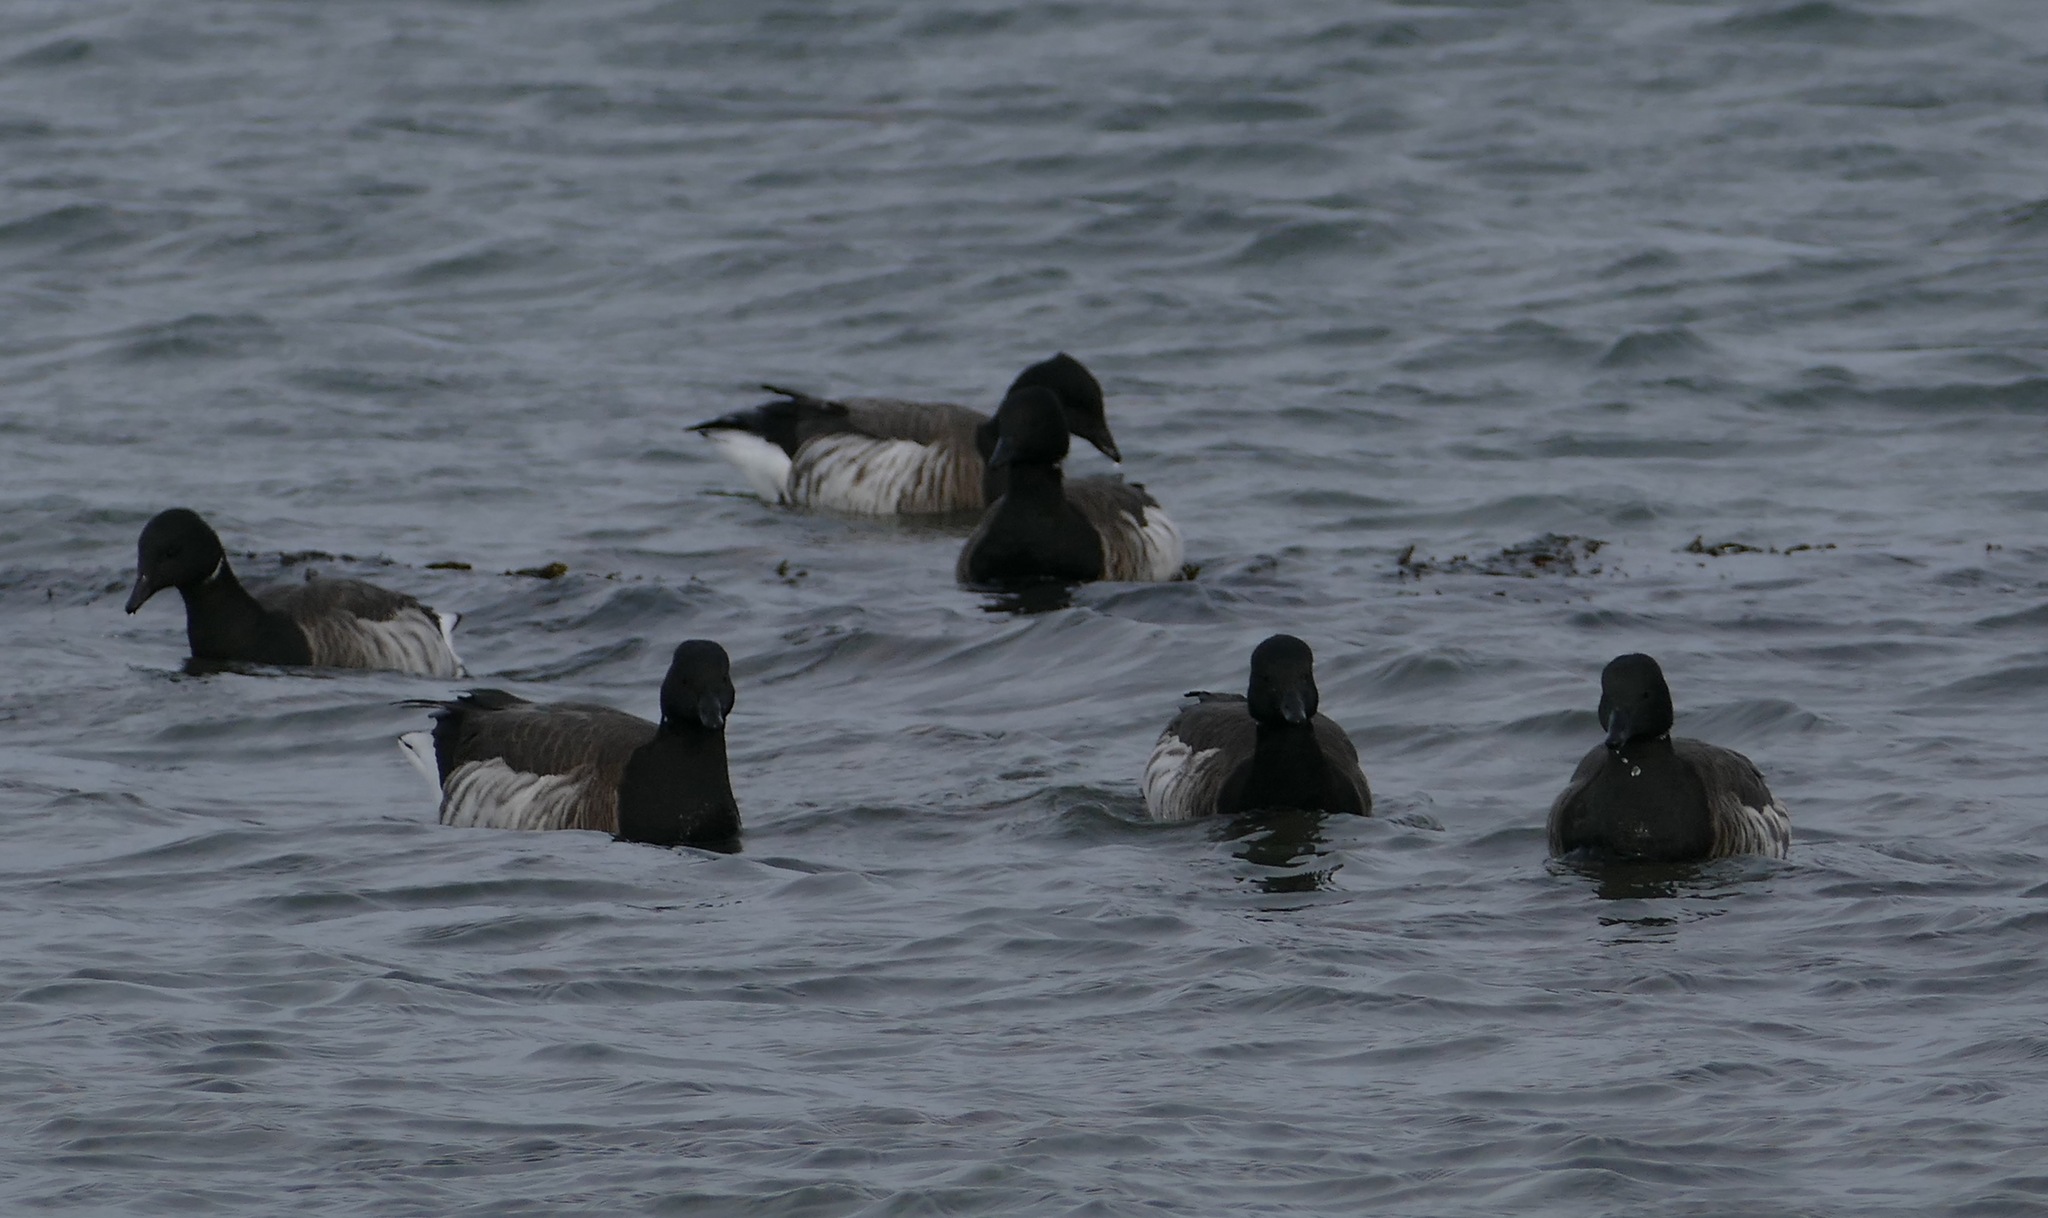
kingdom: Animalia
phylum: Chordata
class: Aves
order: Anseriformes
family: Anatidae
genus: Branta
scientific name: Branta bernicla
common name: Brant goose
